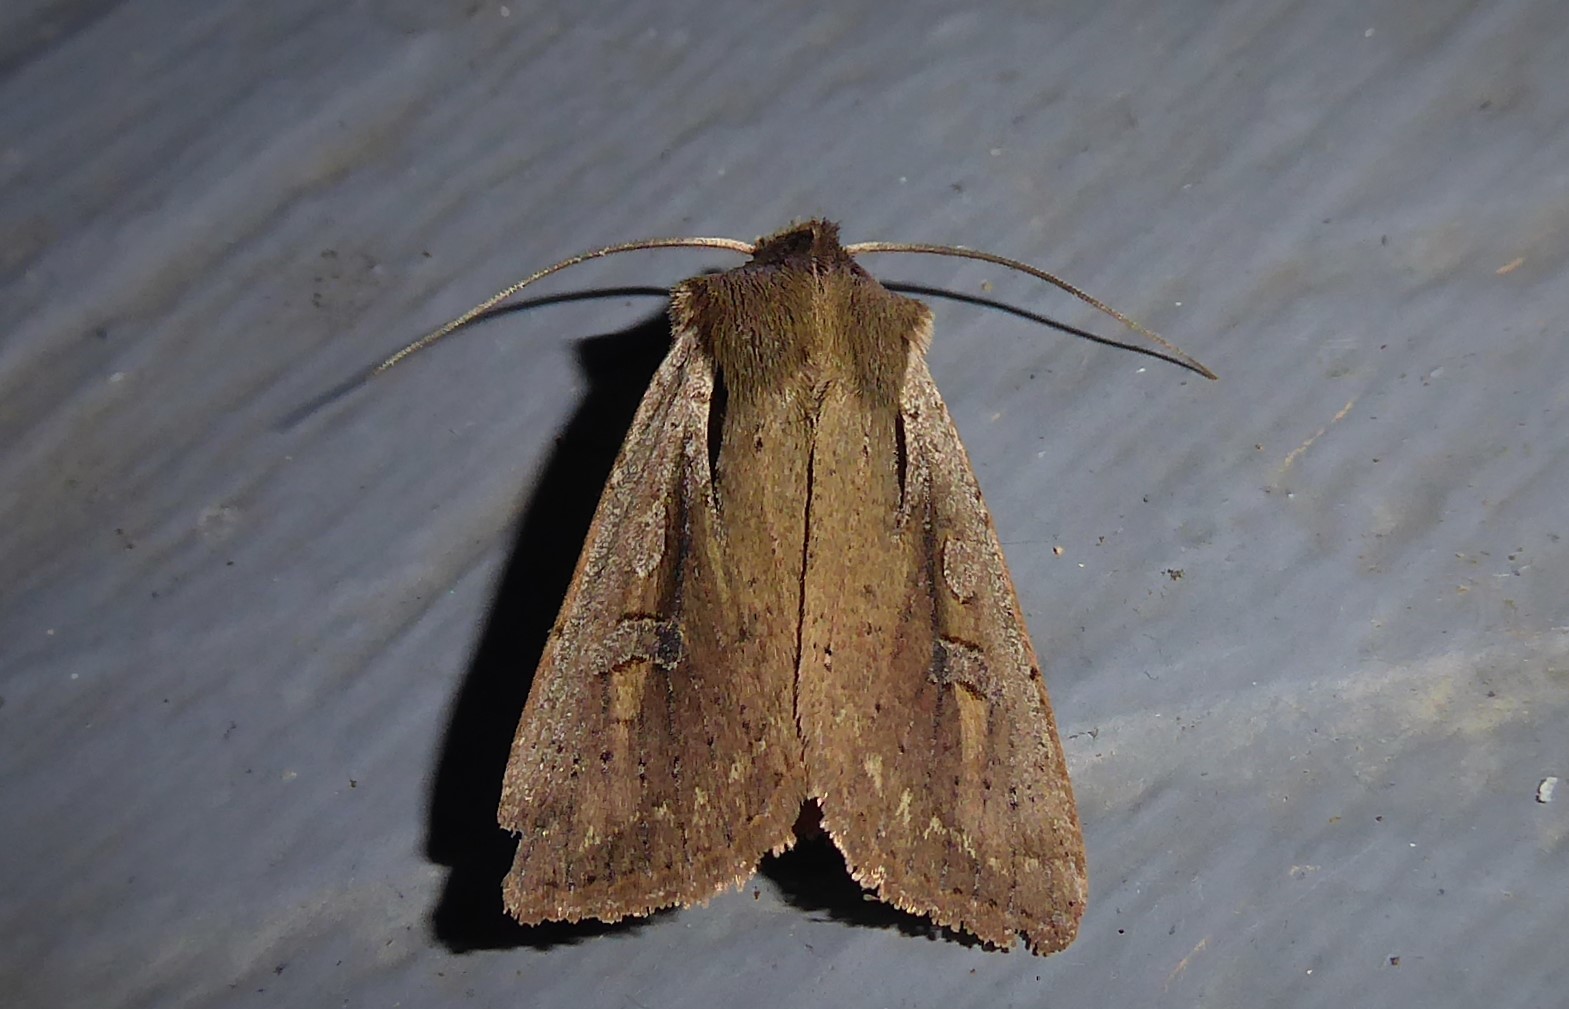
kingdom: Animalia
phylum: Arthropoda
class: Insecta
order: Lepidoptera
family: Noctuidae
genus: Ichneutica
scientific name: Ichneutica atristriga
